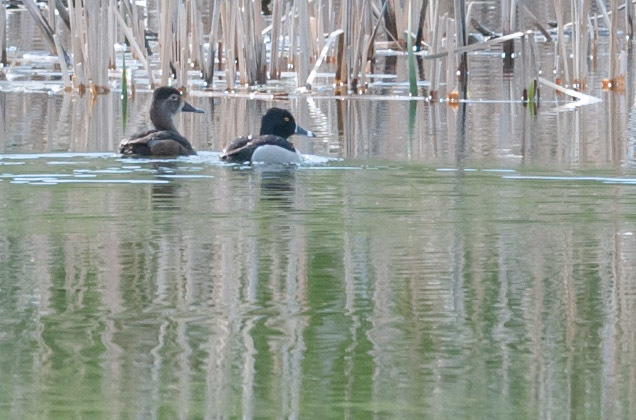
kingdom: Animalia
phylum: Chordata
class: Aves
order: Anseriformes
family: Anatidae
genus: Aythya
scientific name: Aythya collaris
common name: Ring-necked duck
